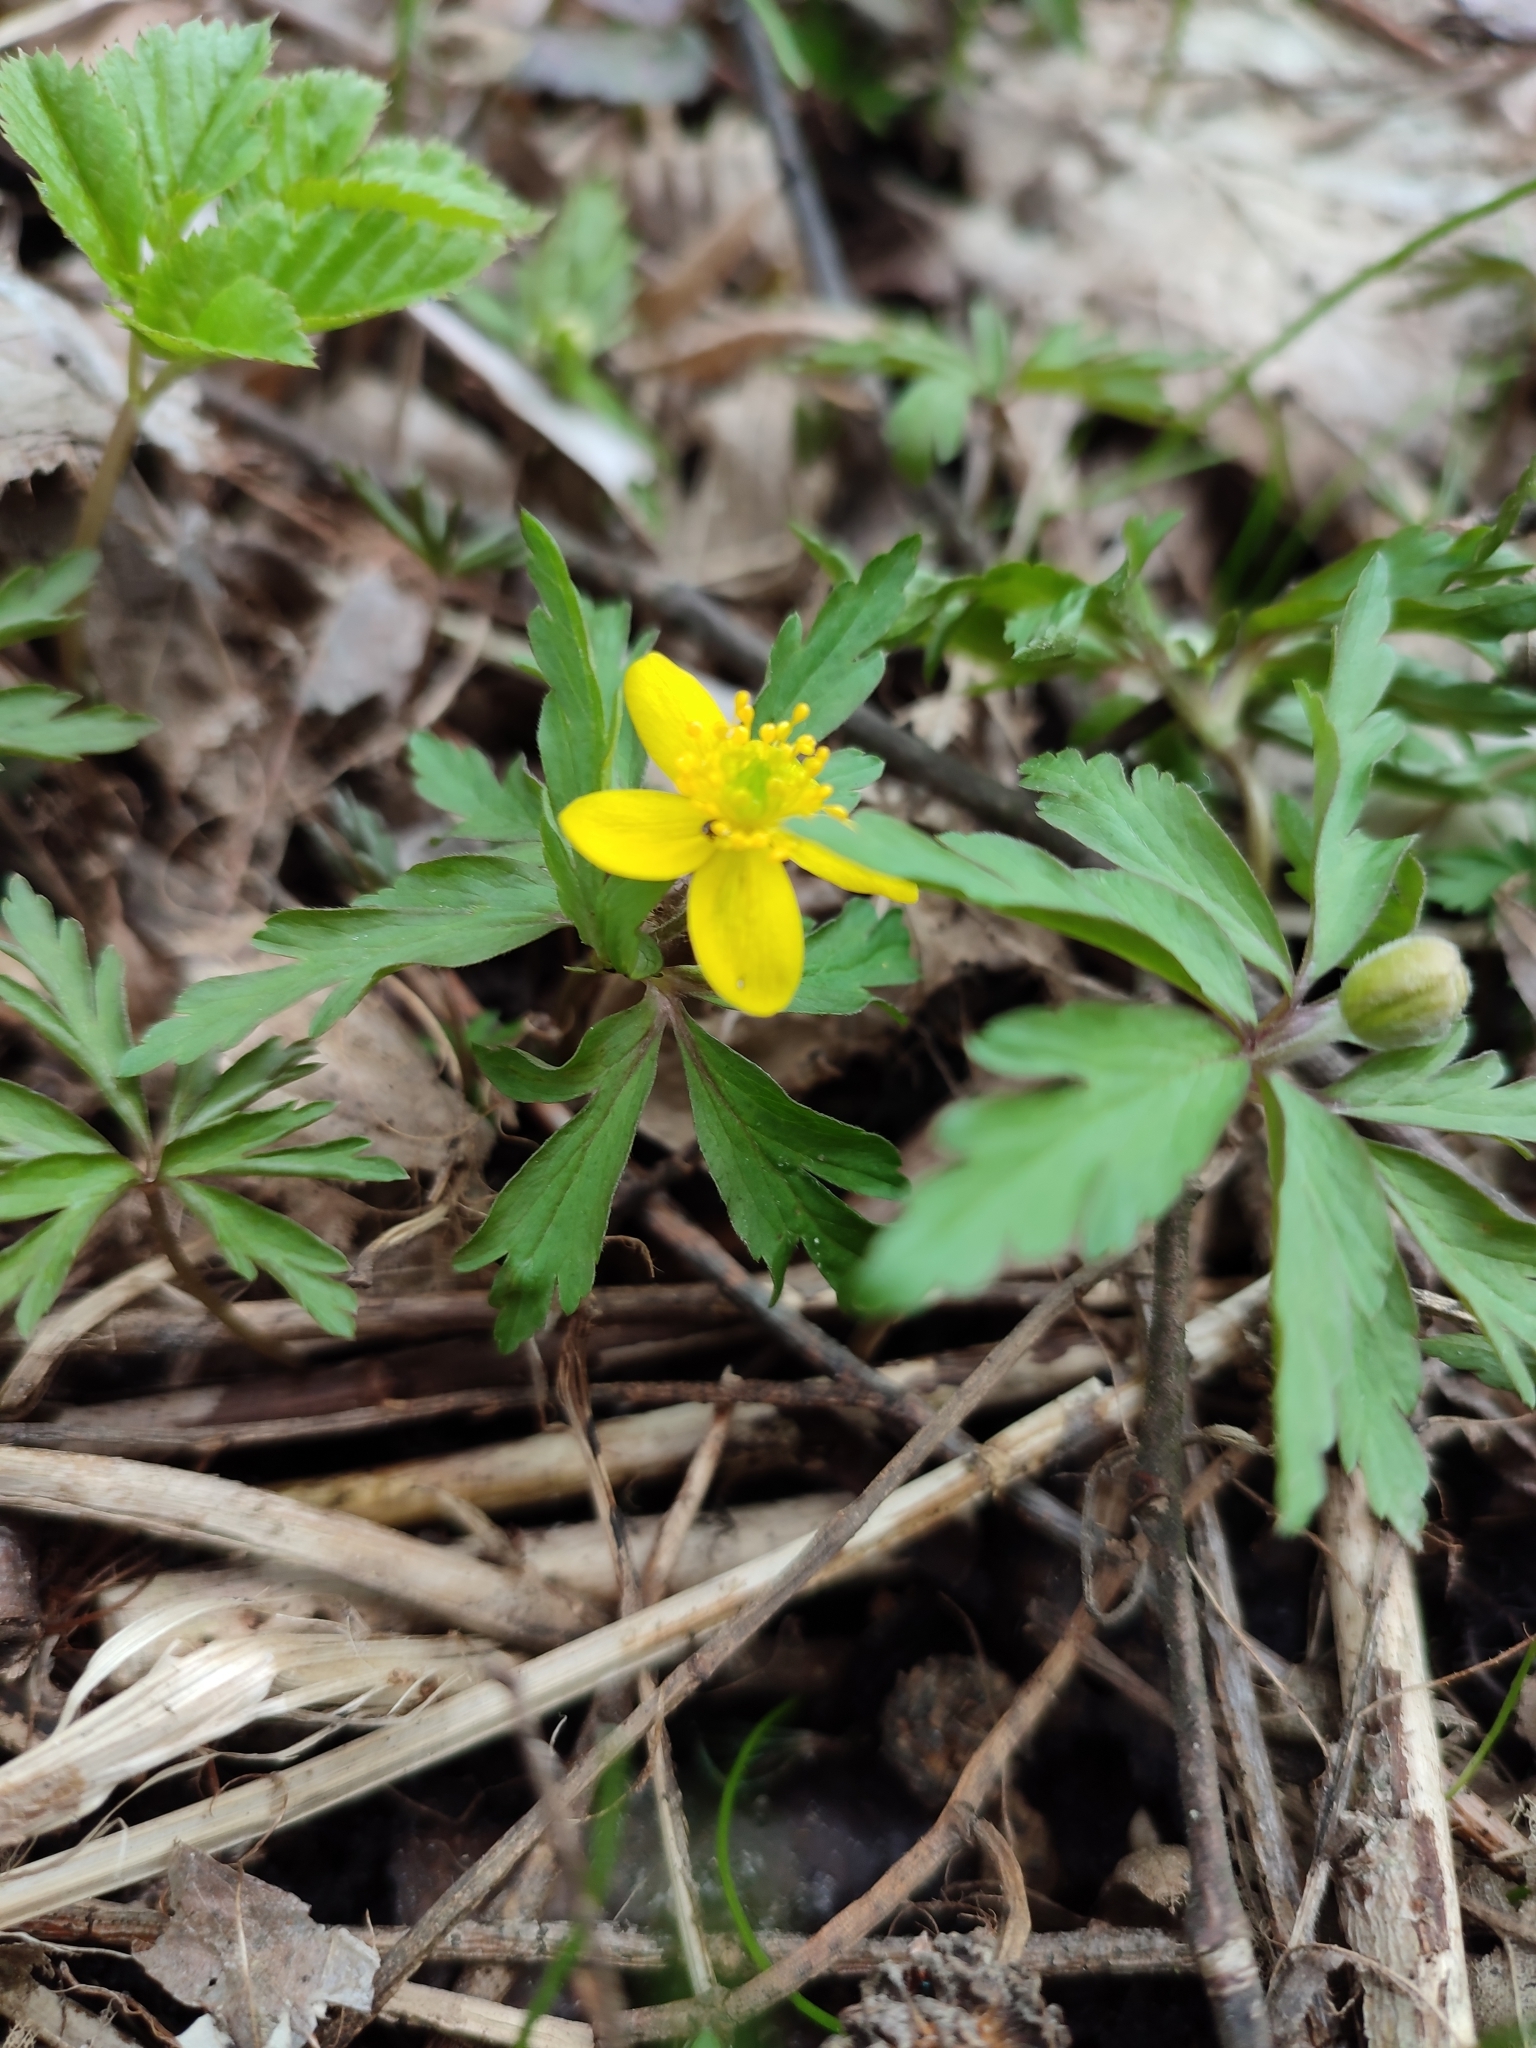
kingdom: Plantae
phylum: Tracheophyta
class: Magnoliopsida
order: Ranunculales
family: Ranunculaceae
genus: Anemone
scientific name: Anemone ranunculoides
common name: Yellow anemone
